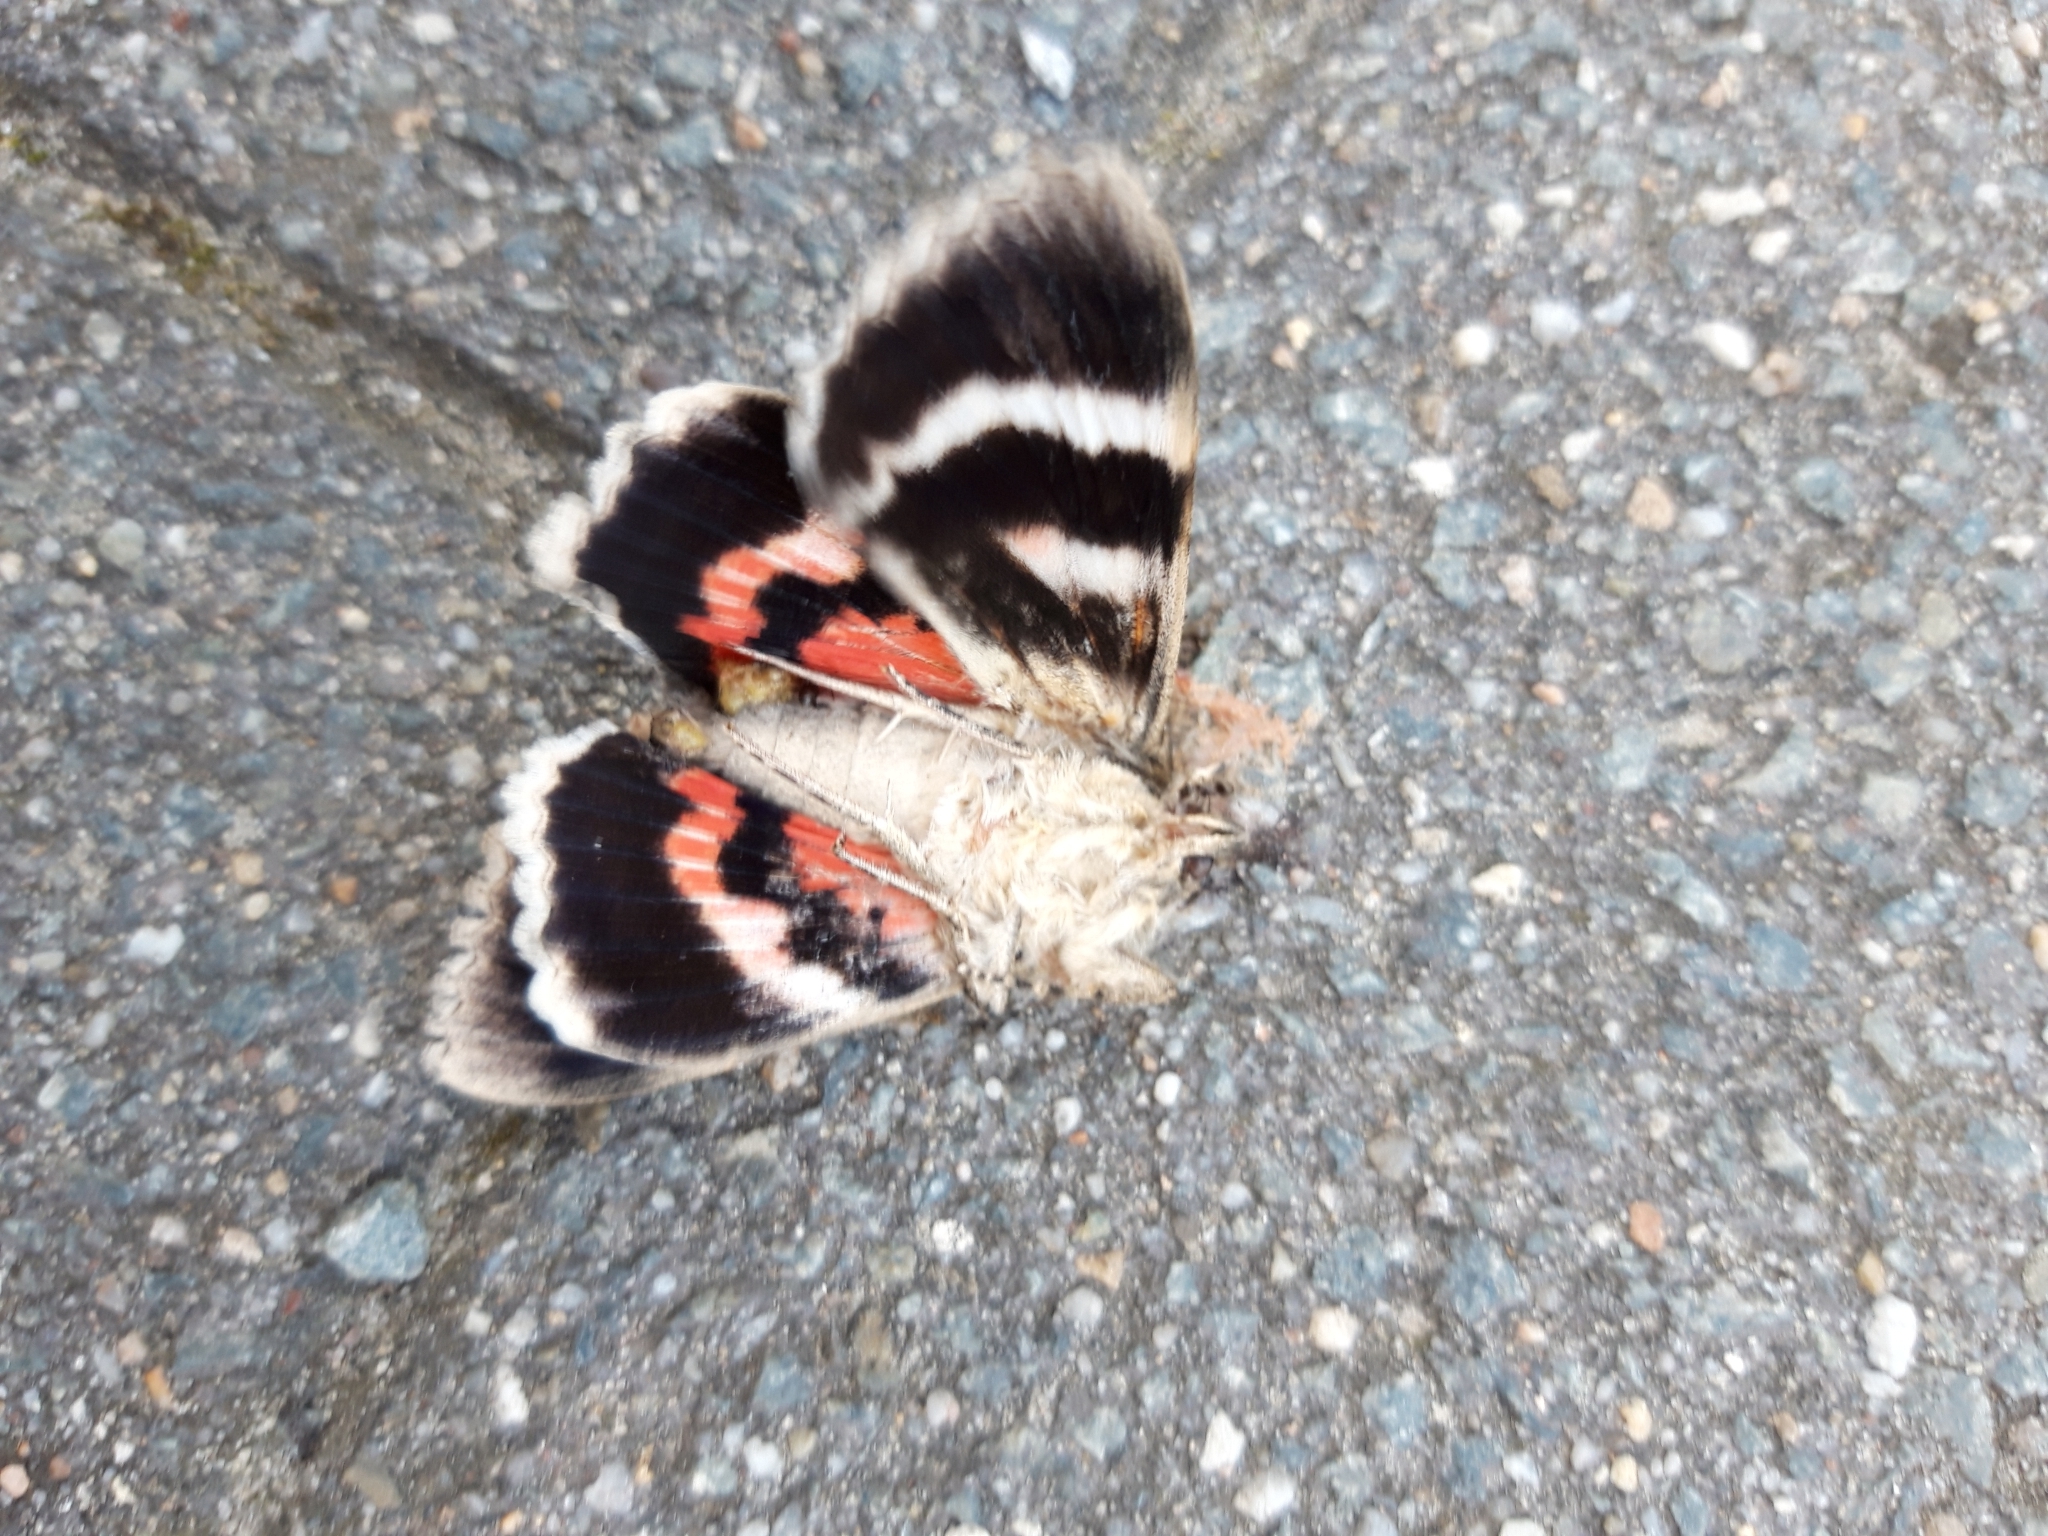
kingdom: Animalia
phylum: Arthropoda
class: Insecta
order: Lepidoptera
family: Erebidae
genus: Catocala
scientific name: Catocala nupta
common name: Red underwing
